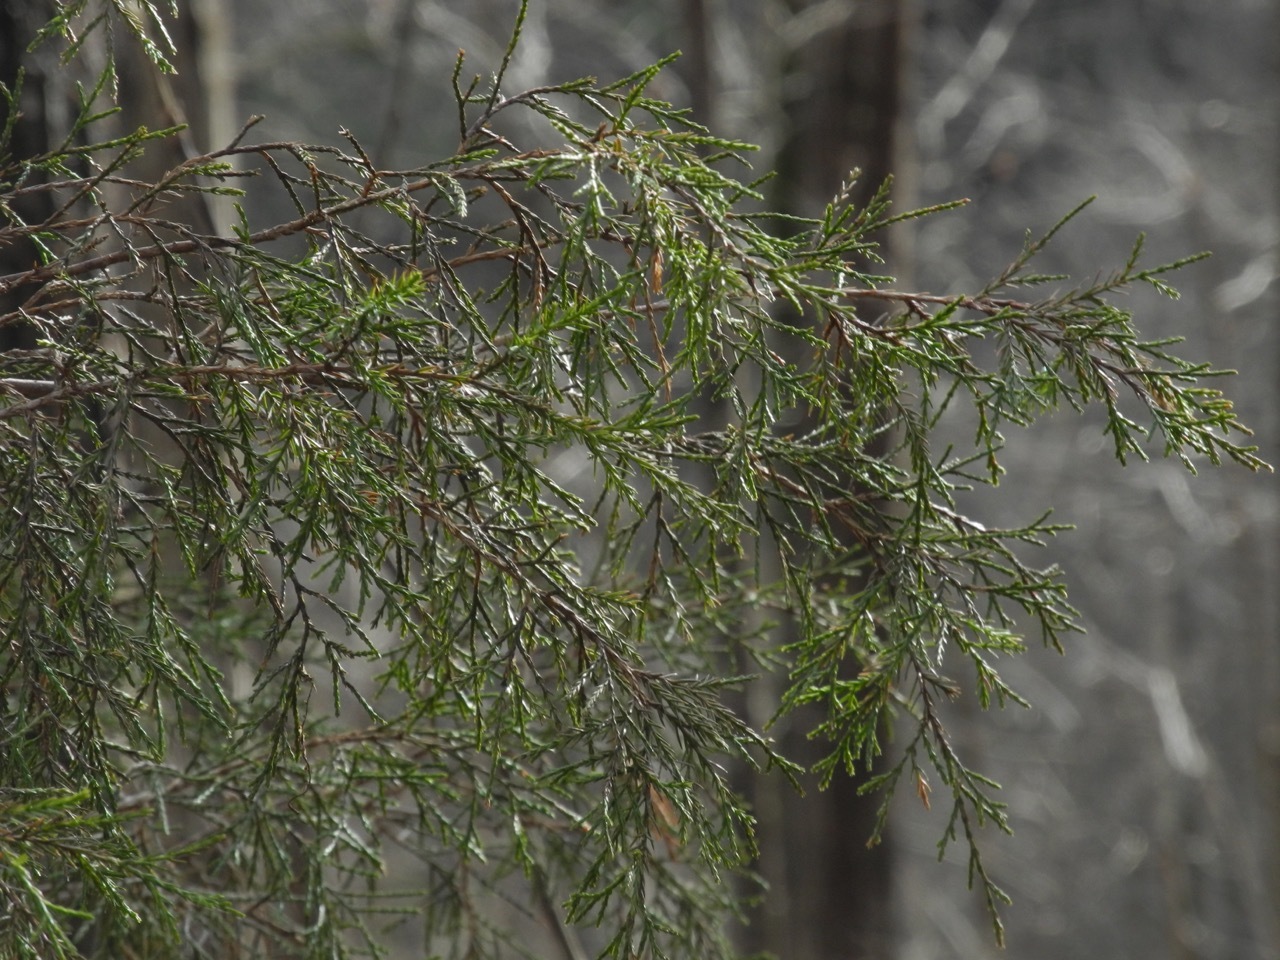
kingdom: Plantae
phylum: Tracheophyta
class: Pinopsida
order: Pinales
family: Cupressaceae
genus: Juniperus
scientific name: Juniperus virginiana
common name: Red juniper
